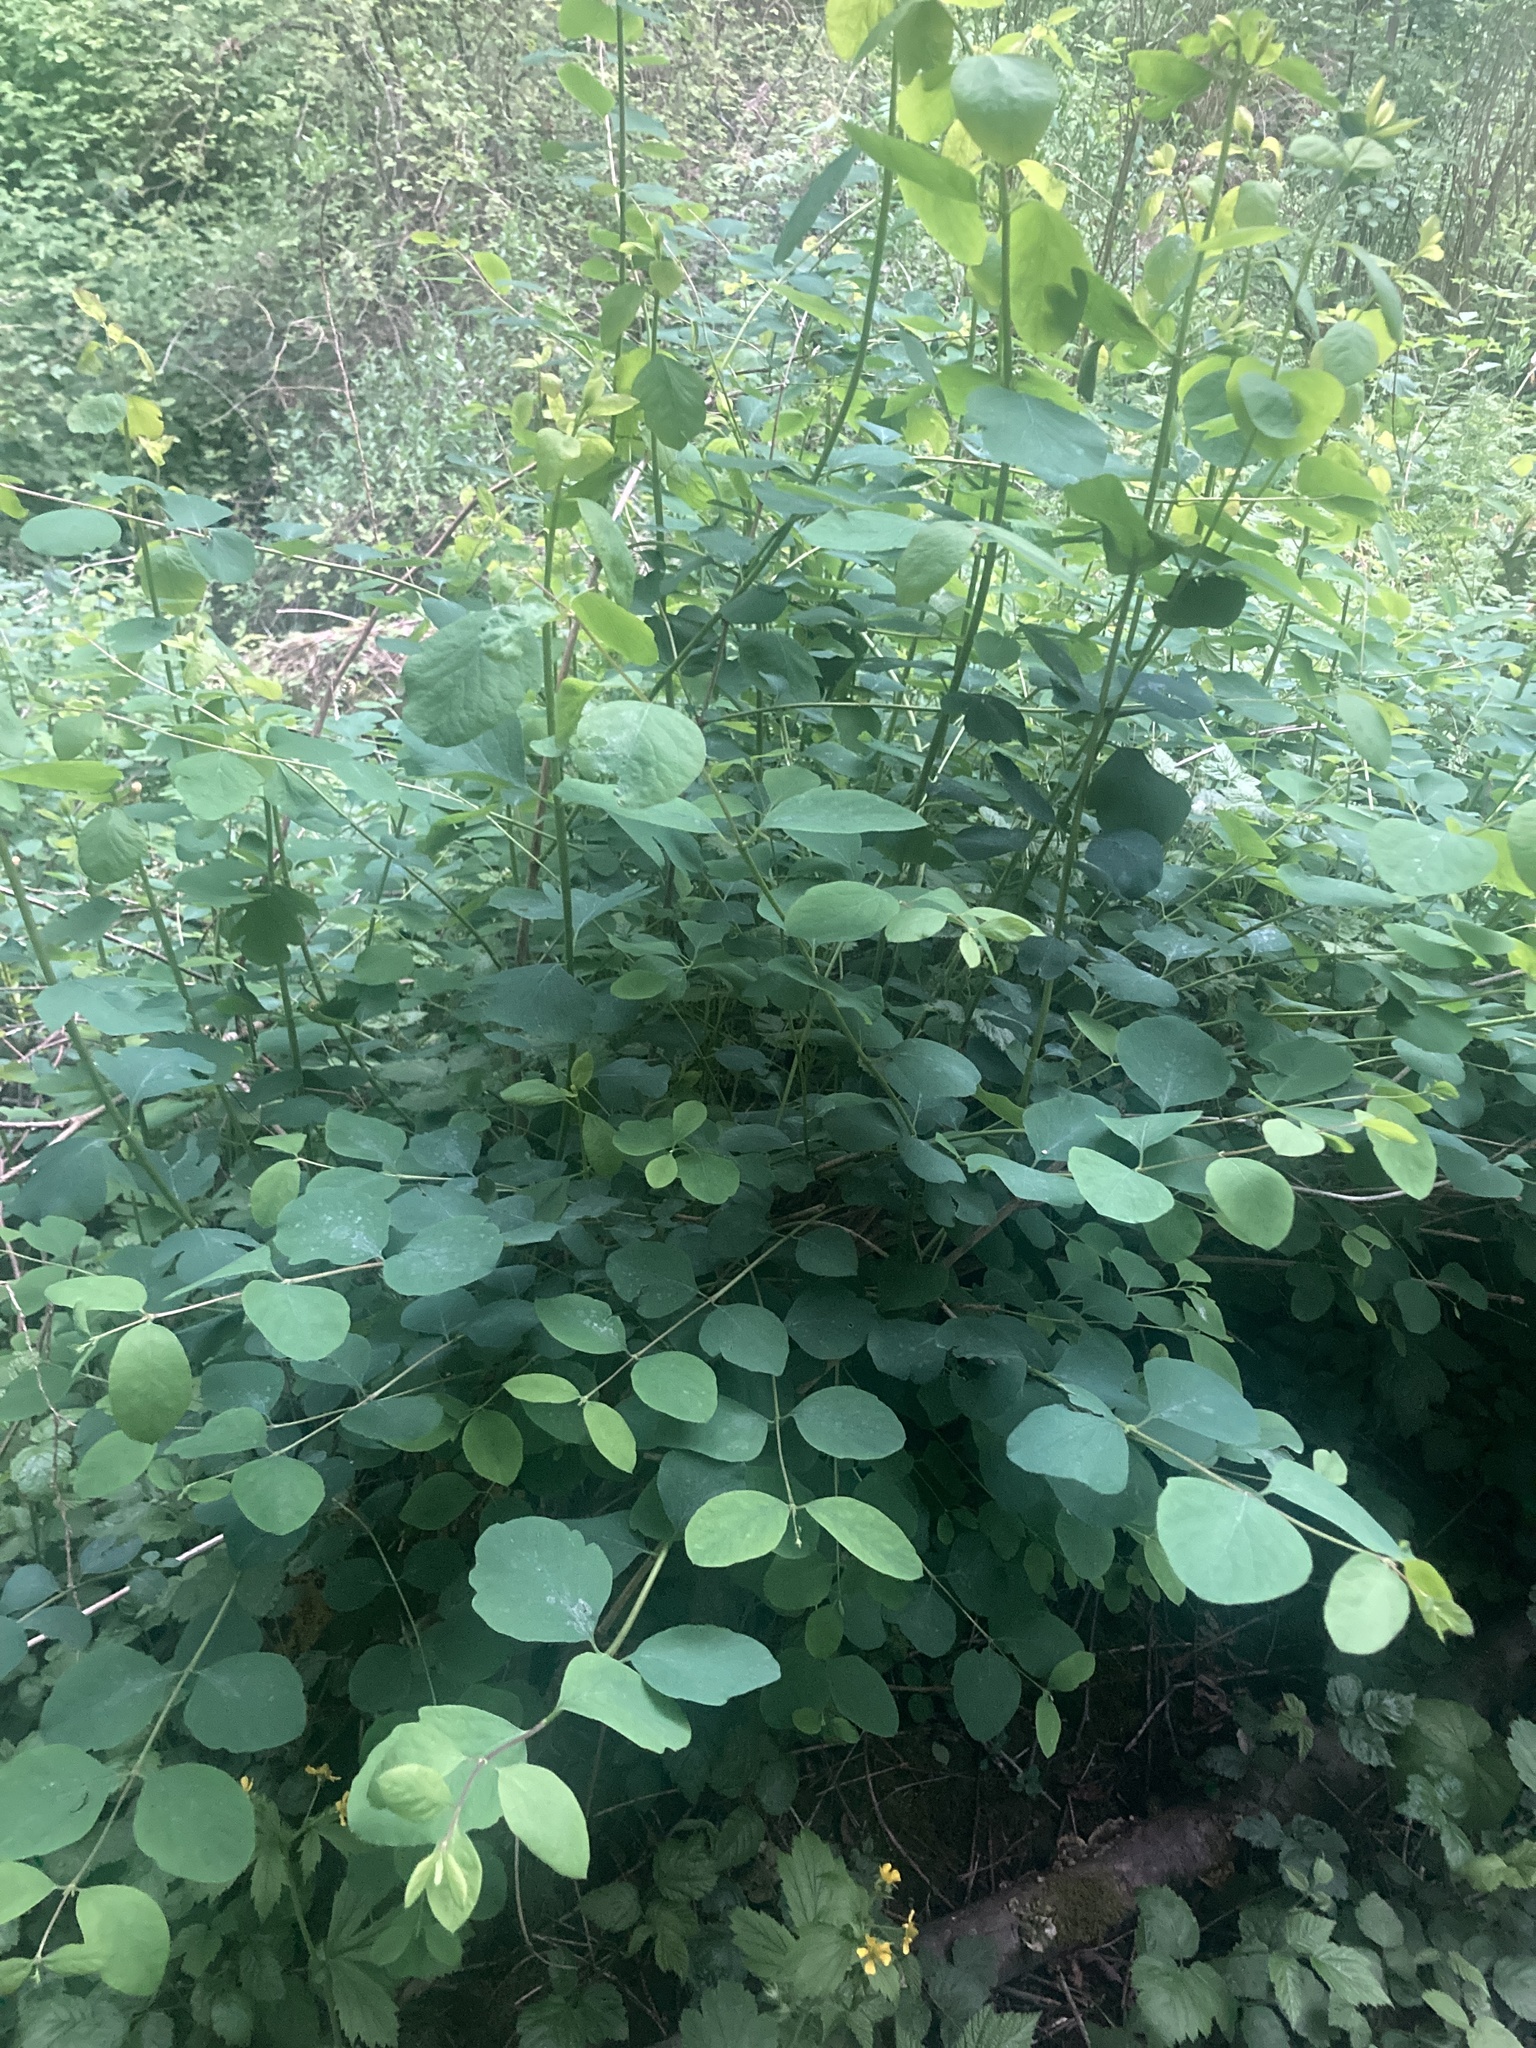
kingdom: Plantae
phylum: Tracheophyta
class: Magnoliopsida
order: Dipsacales
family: Caprifoliaceae
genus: Symphoricarpos
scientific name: Symphoricarpos albus
